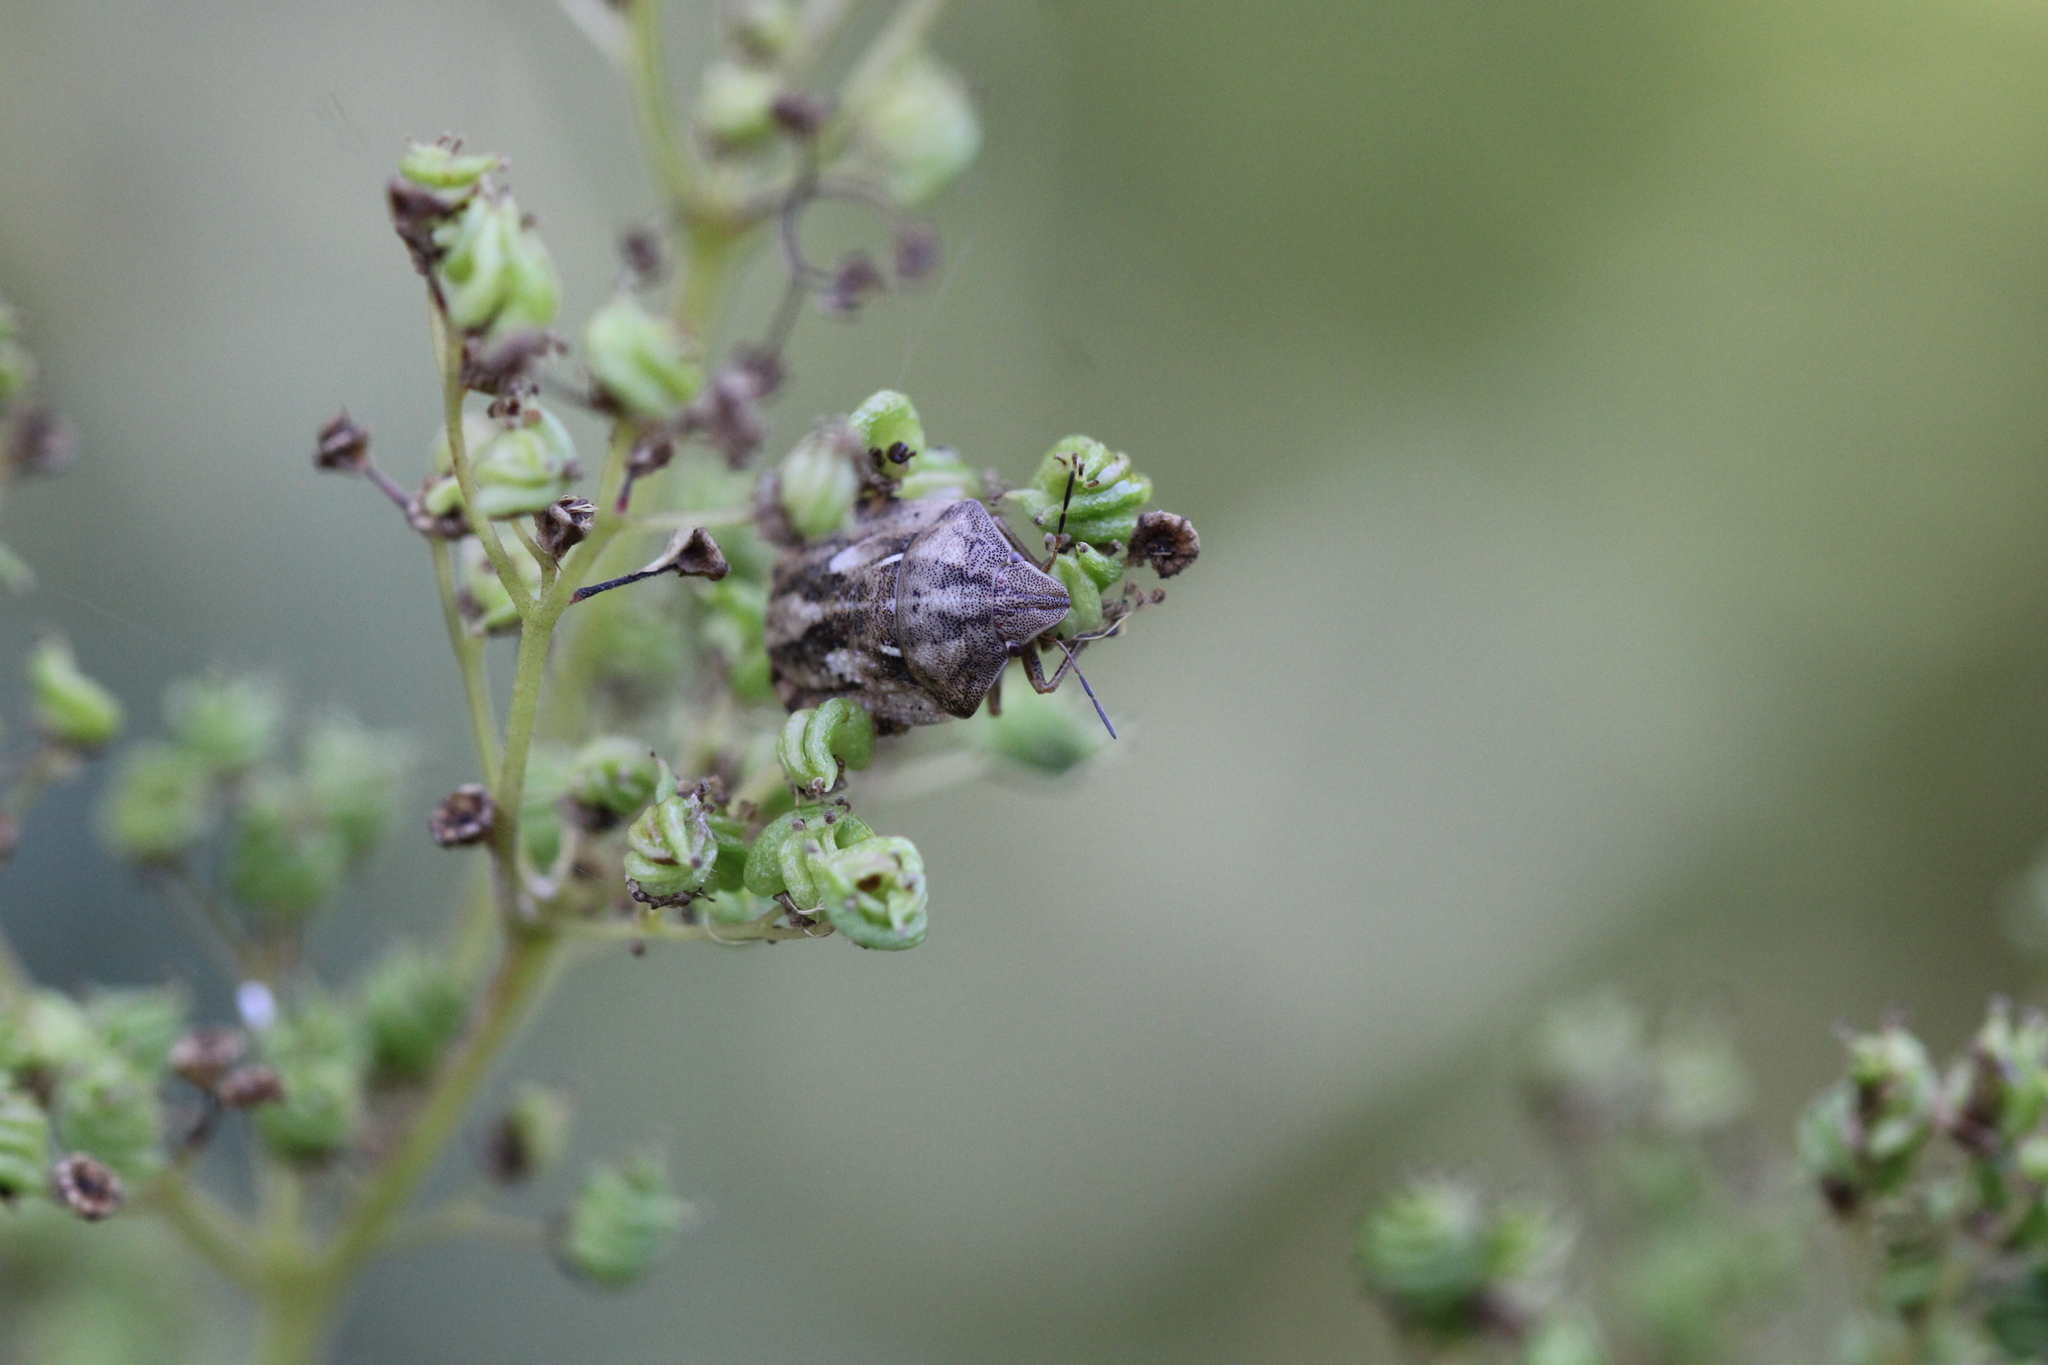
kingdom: Animalia
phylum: Arthropoda
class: Insecta
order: Hemiptera
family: Scutelleridae
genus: Eurygaster
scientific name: Eurygaster testudinaria
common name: Tortoise bug
